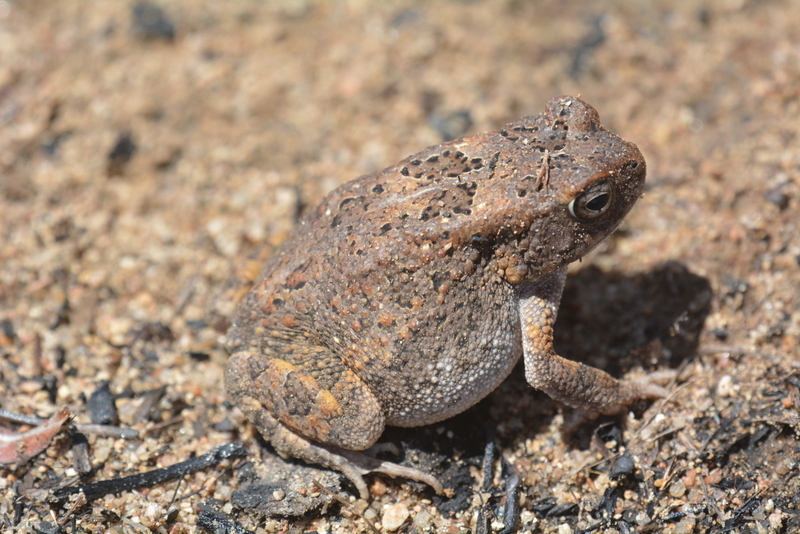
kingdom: Animalia
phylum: Chordata
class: Amphibia
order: Anura
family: Bufonidae
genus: Sclerophrys
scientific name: Sclerophrys pusilla
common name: Merten's striped toad
